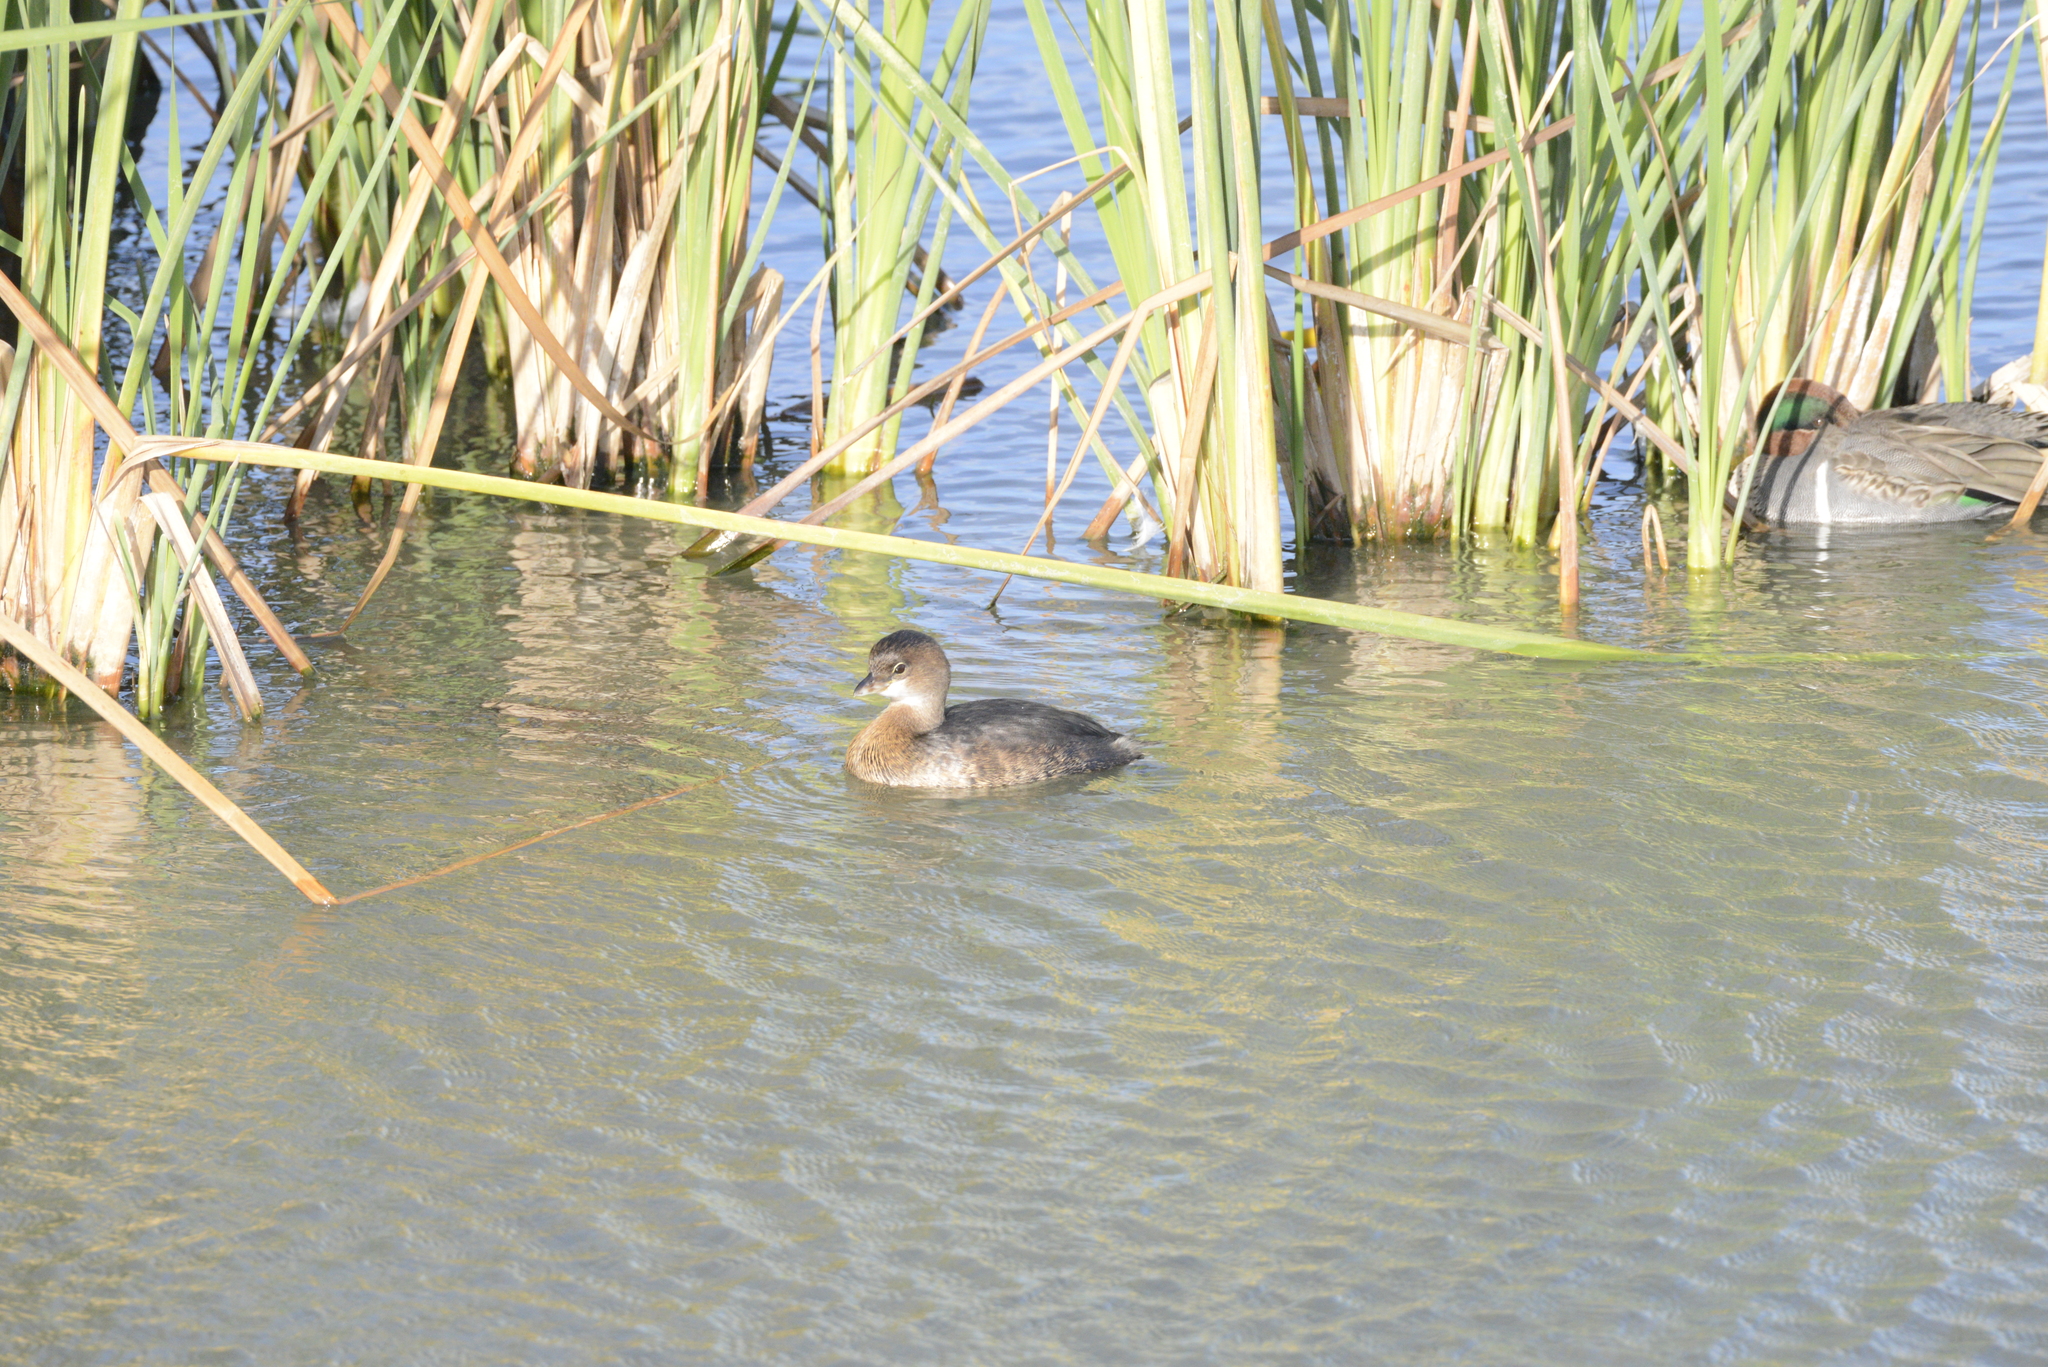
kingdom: Animalia
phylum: Chordata
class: Aves
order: Podicipediformes
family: Podicipedidae
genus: Podilymbus
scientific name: Podilymbus podiceps
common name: Pied-billed grebe
